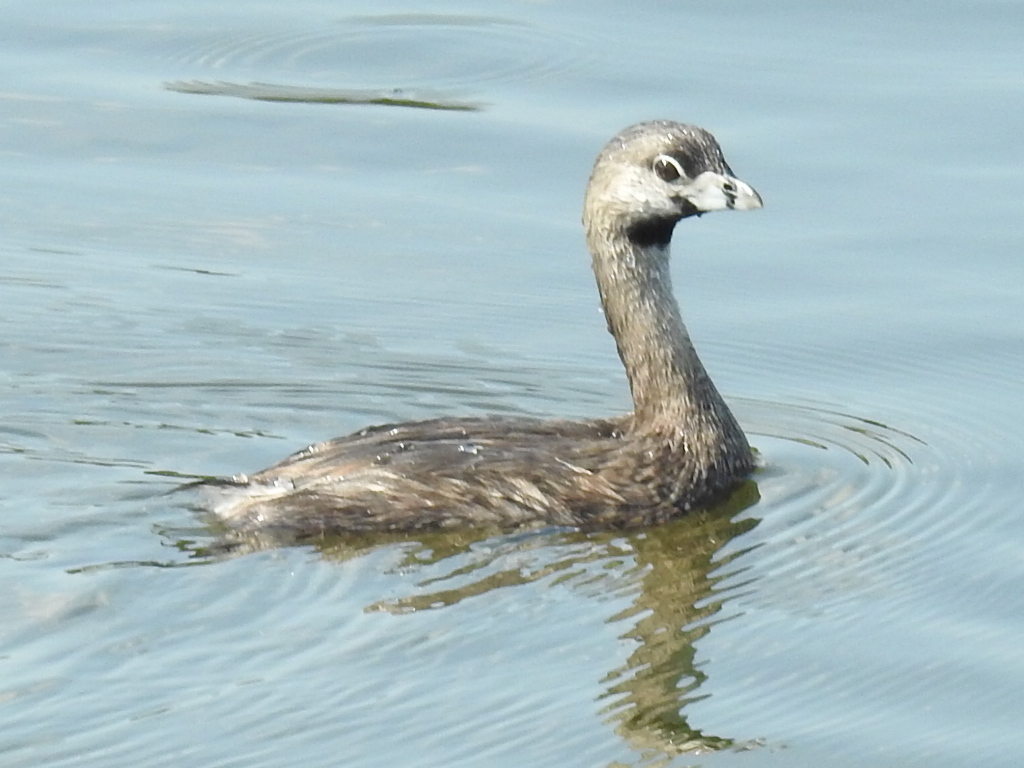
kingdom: Animalia
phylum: Chordata
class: Aves
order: Podicipediformes
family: Podicipedidae
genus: Podilymbus
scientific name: Podilymbus podiceps
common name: Pied-billed grebe
